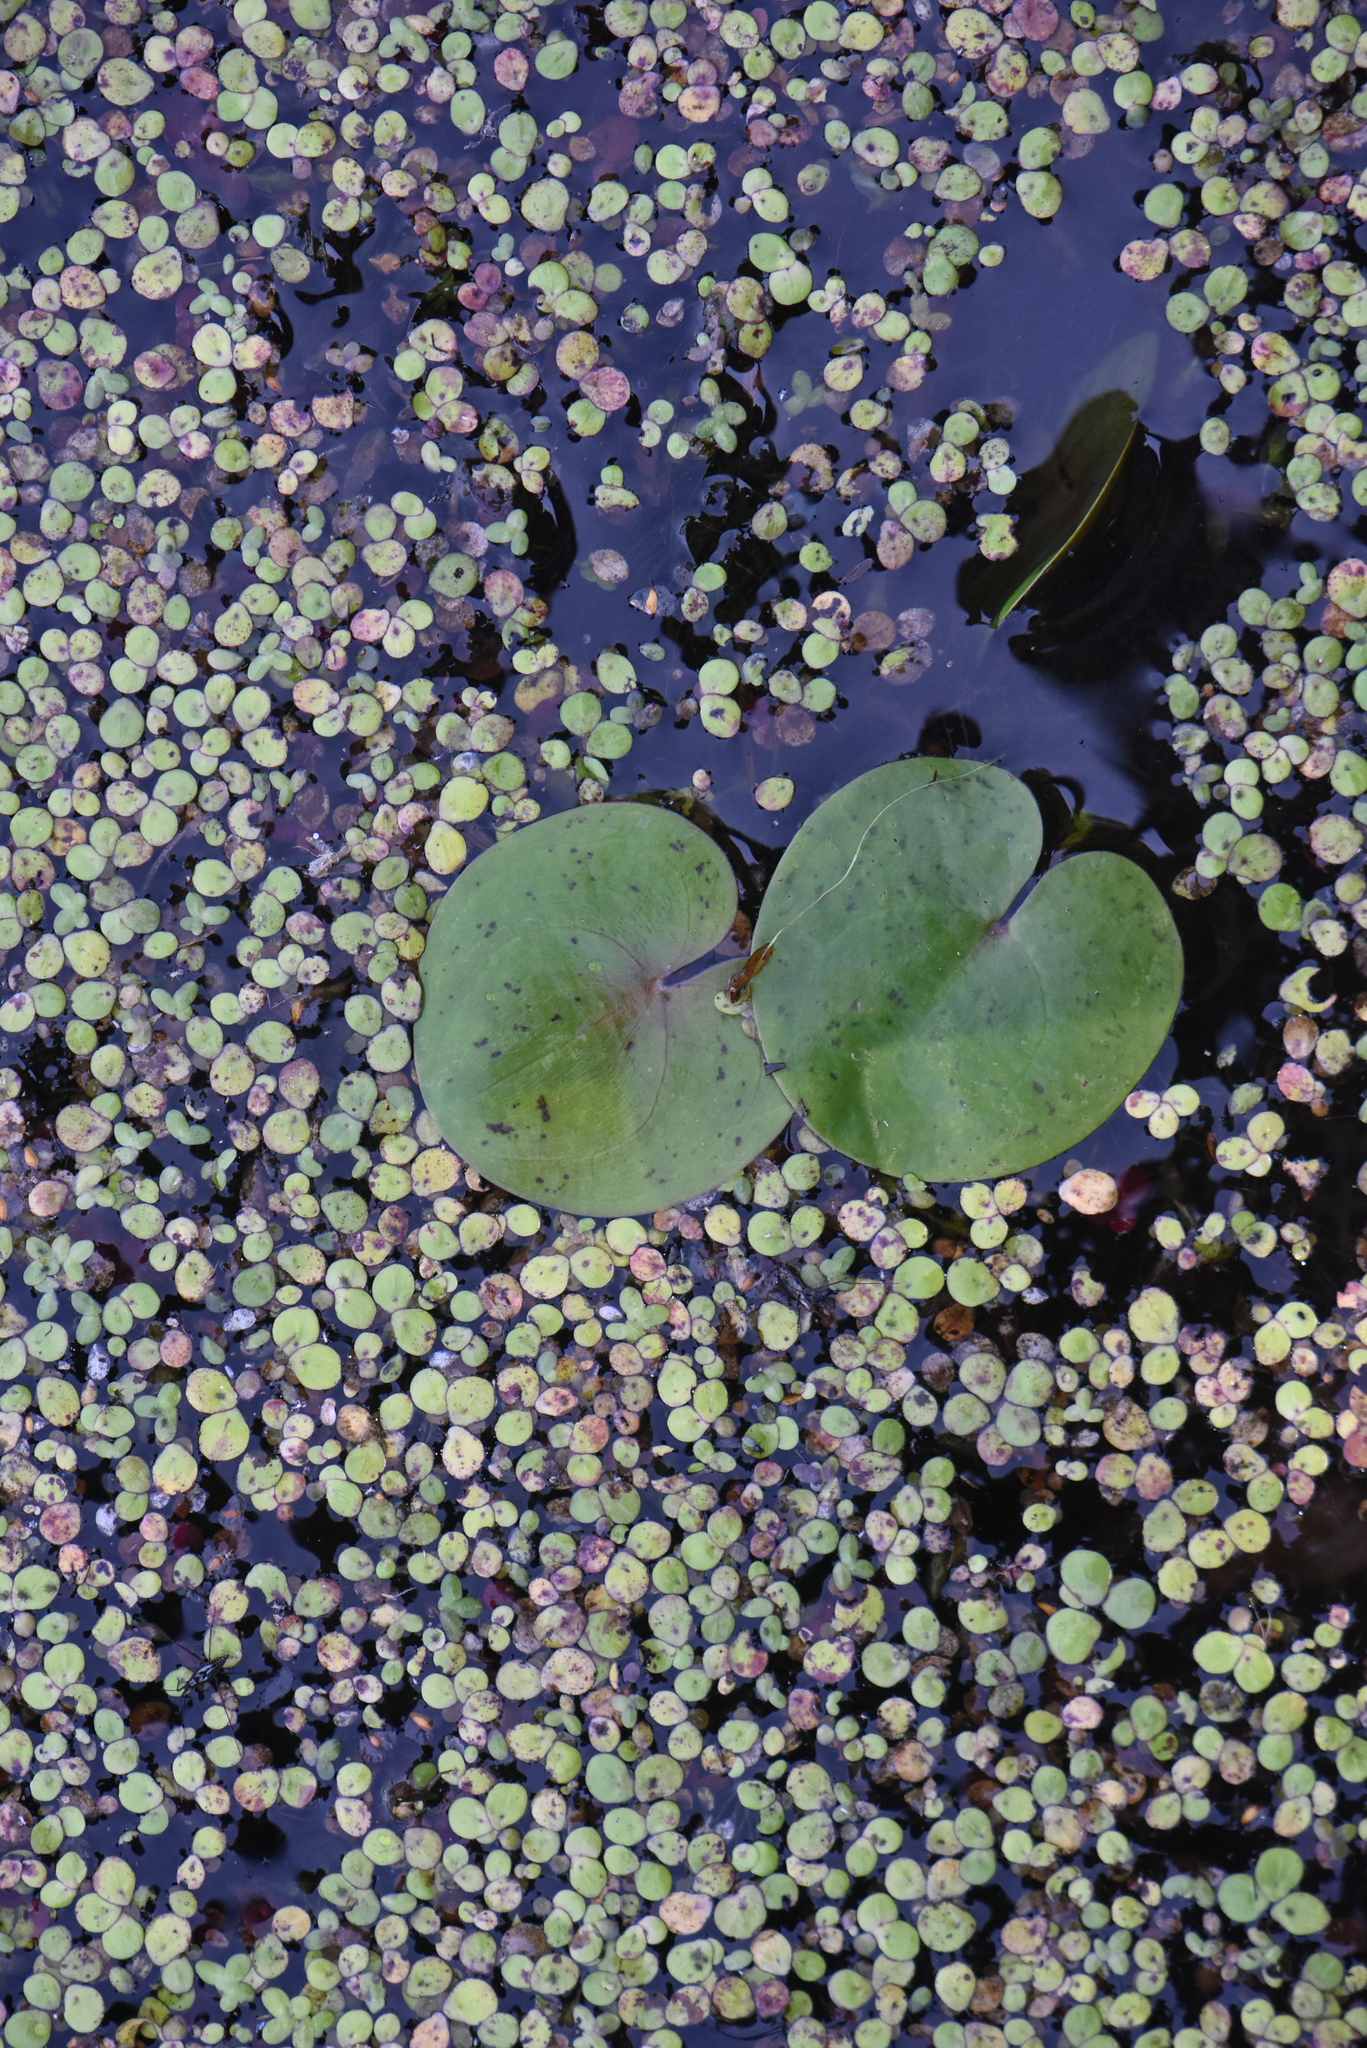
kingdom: Plantae
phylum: Tracheophyta
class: Liliopsida
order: Alismatales
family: Hydrocharitaceae
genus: Hydrocharis
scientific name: Hydrocharis morsus-ranae
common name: Frogbit
